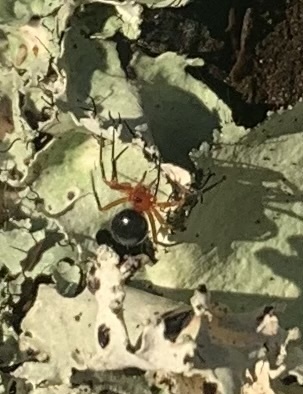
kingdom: Animalia
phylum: Arthropoda
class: Arachnida
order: Araneae
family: Linyphiidae
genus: Hypselistes
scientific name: Hypselistes florens
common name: Peatland sheetweb weaver
